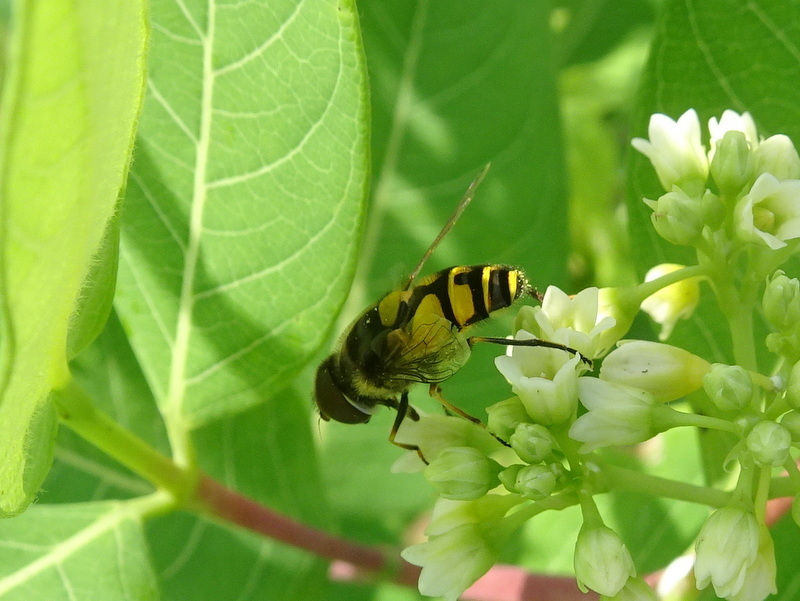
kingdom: Animalia
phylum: Arthropoda
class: Insecta
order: Diptera
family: Syrphidae
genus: Eristalis
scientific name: Eristalis transversa
